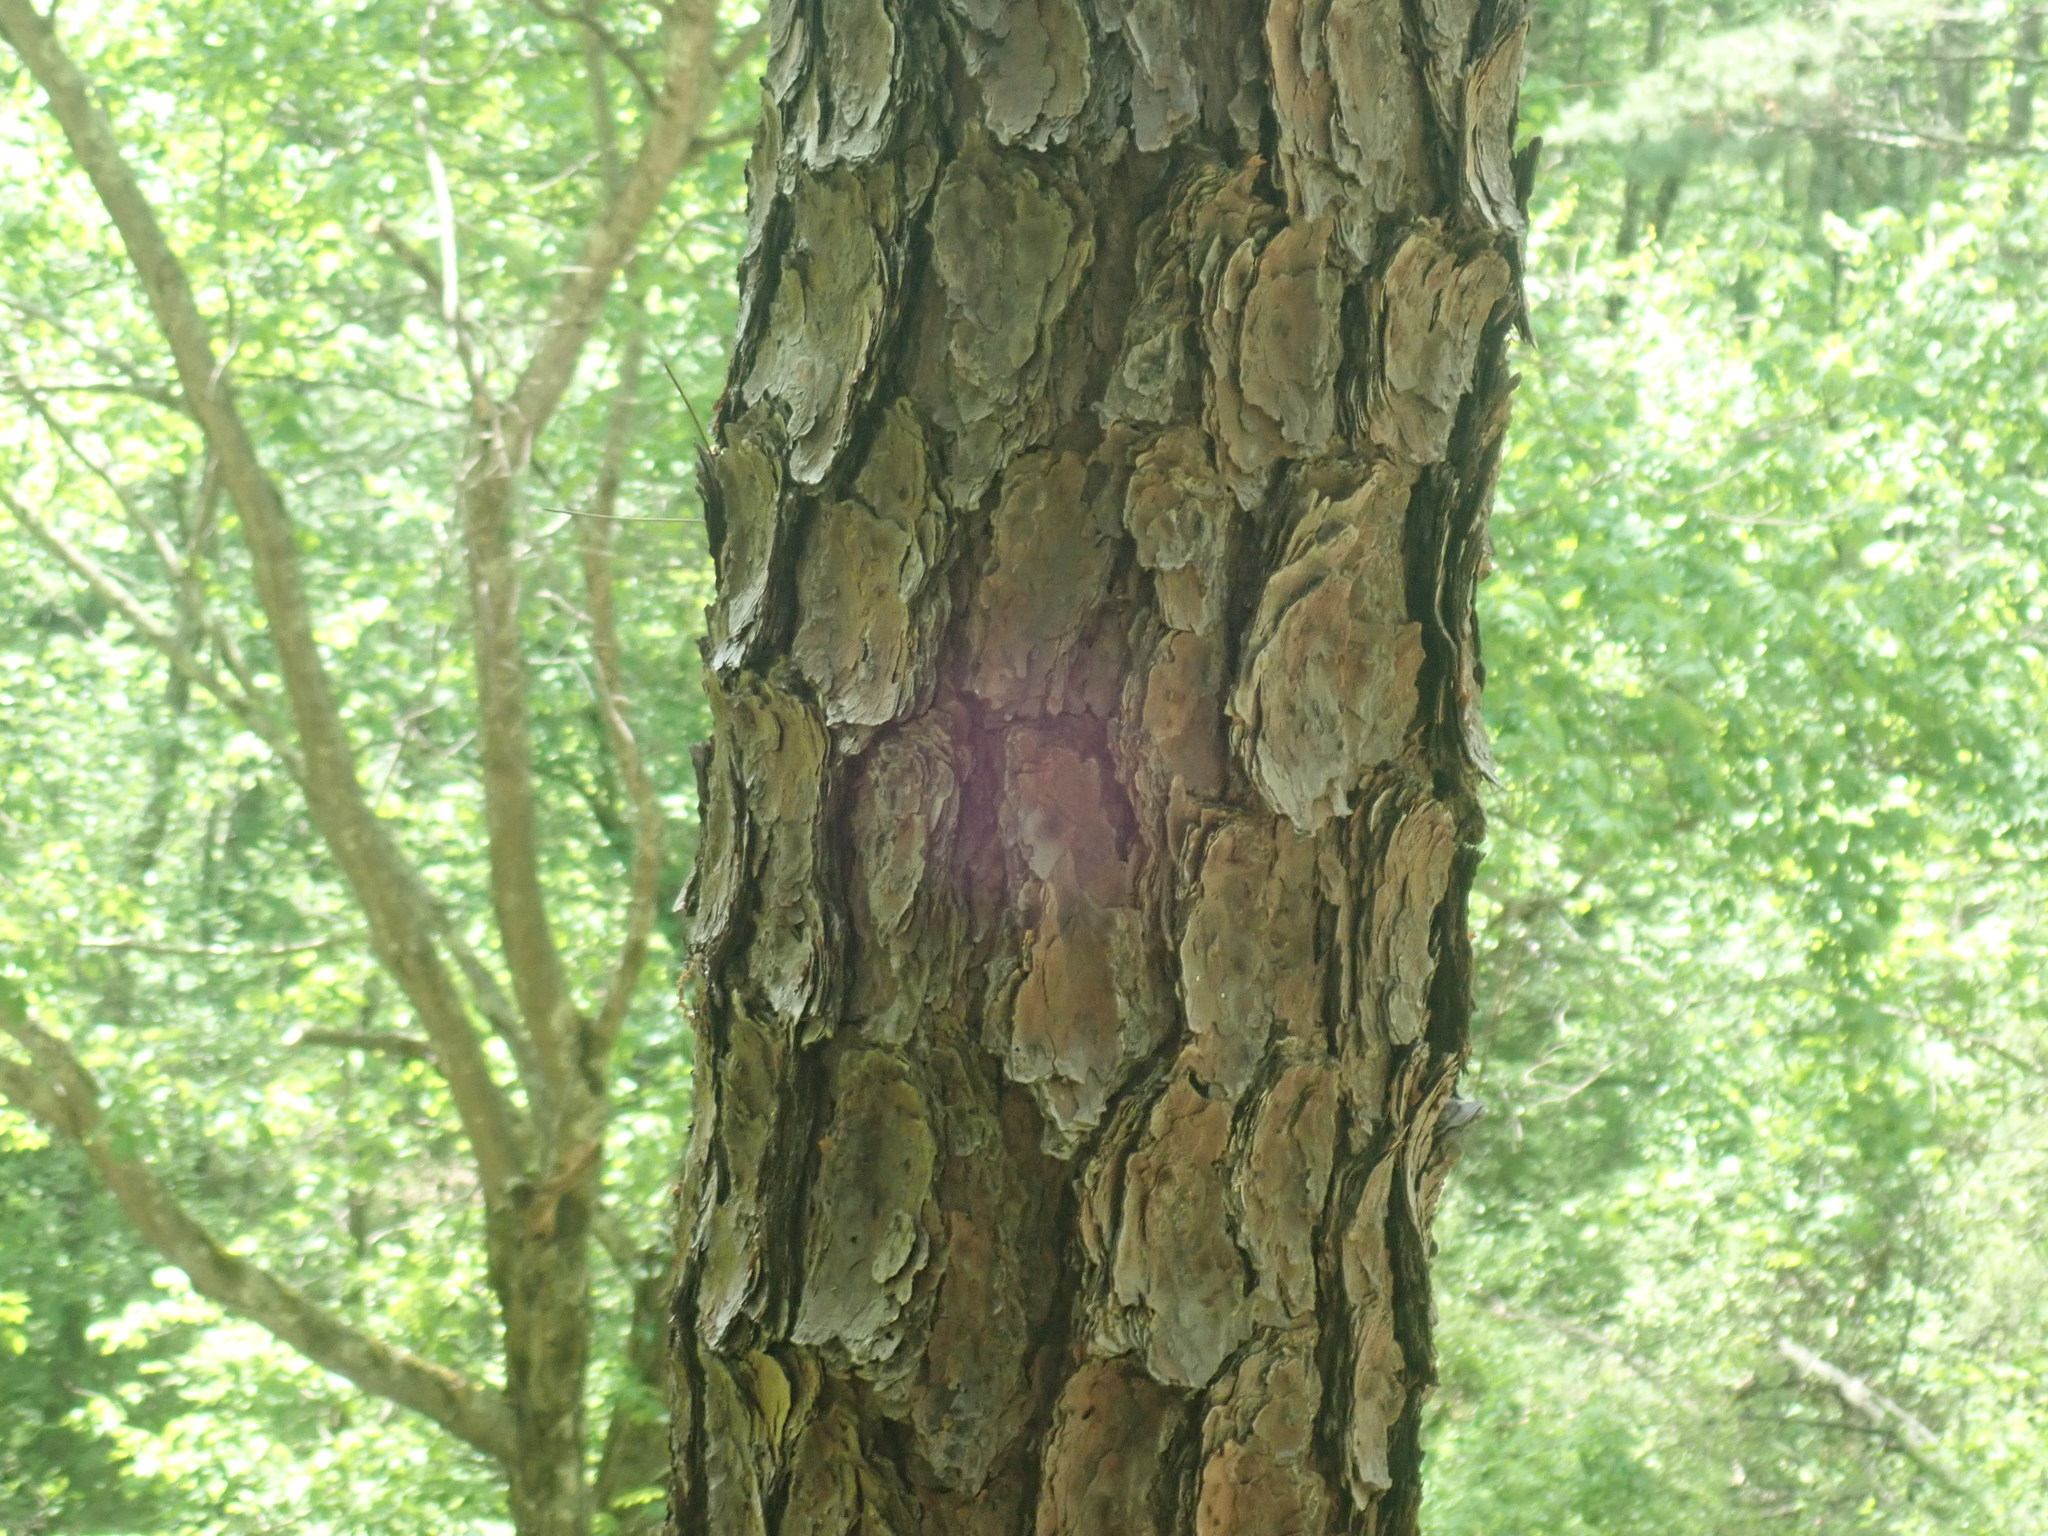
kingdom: Plantae
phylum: Tracheophyta
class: Pinopsida
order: Pinales
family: Pinaceae
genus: Pinus
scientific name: Pinus rigida
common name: Pitch pine
